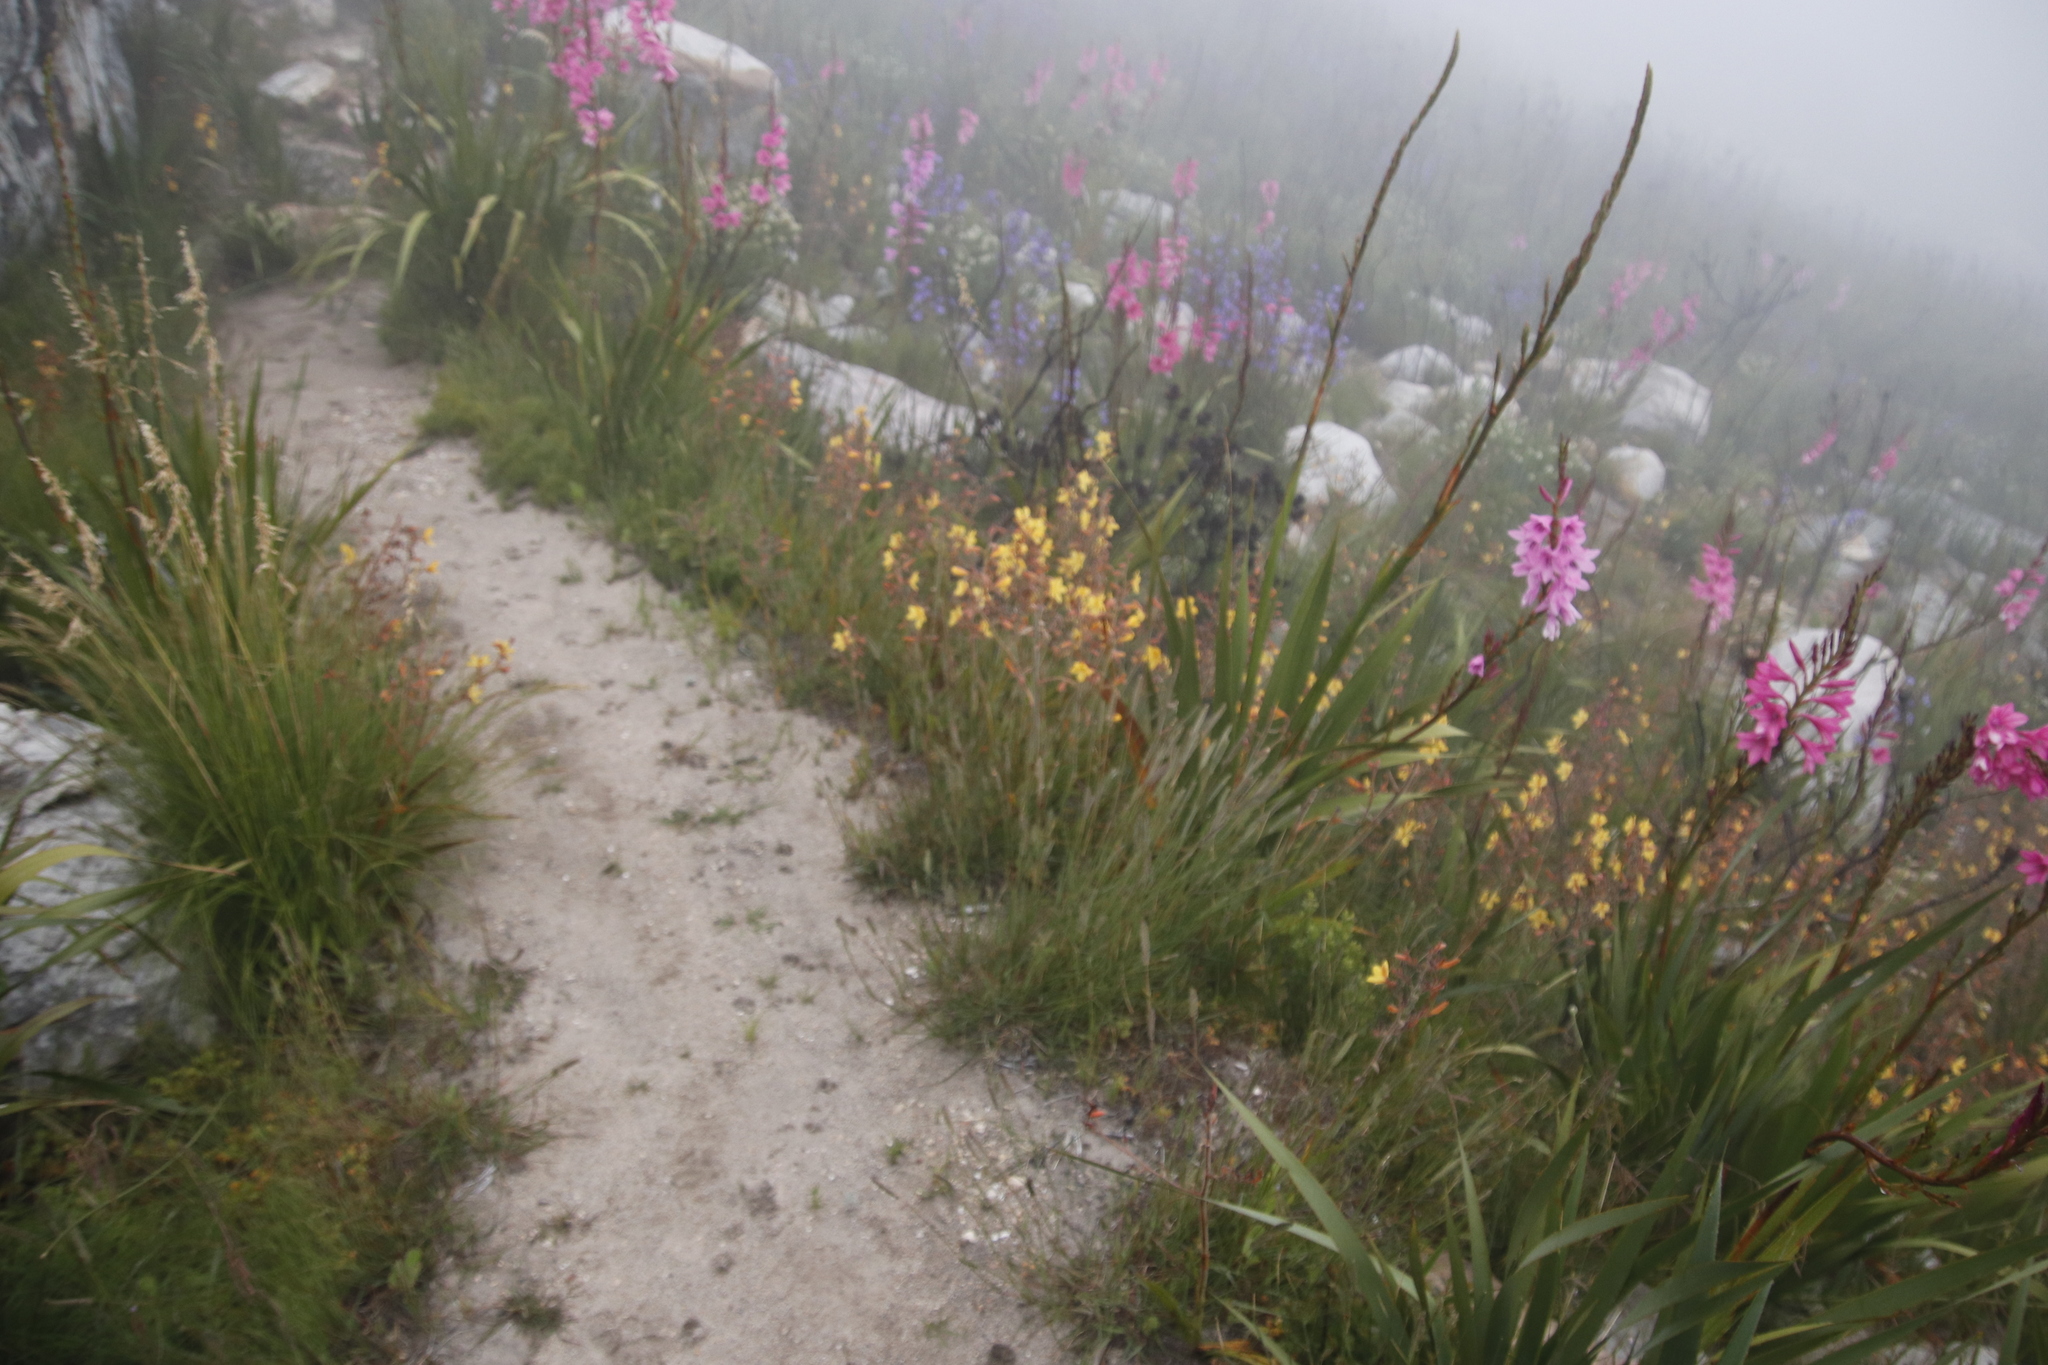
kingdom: Plantae
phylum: Tracheophyta
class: Liliopsida
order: Commelinales
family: Haemodoraceae
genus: Wachendorfia
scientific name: Wachendorfia paniculata
